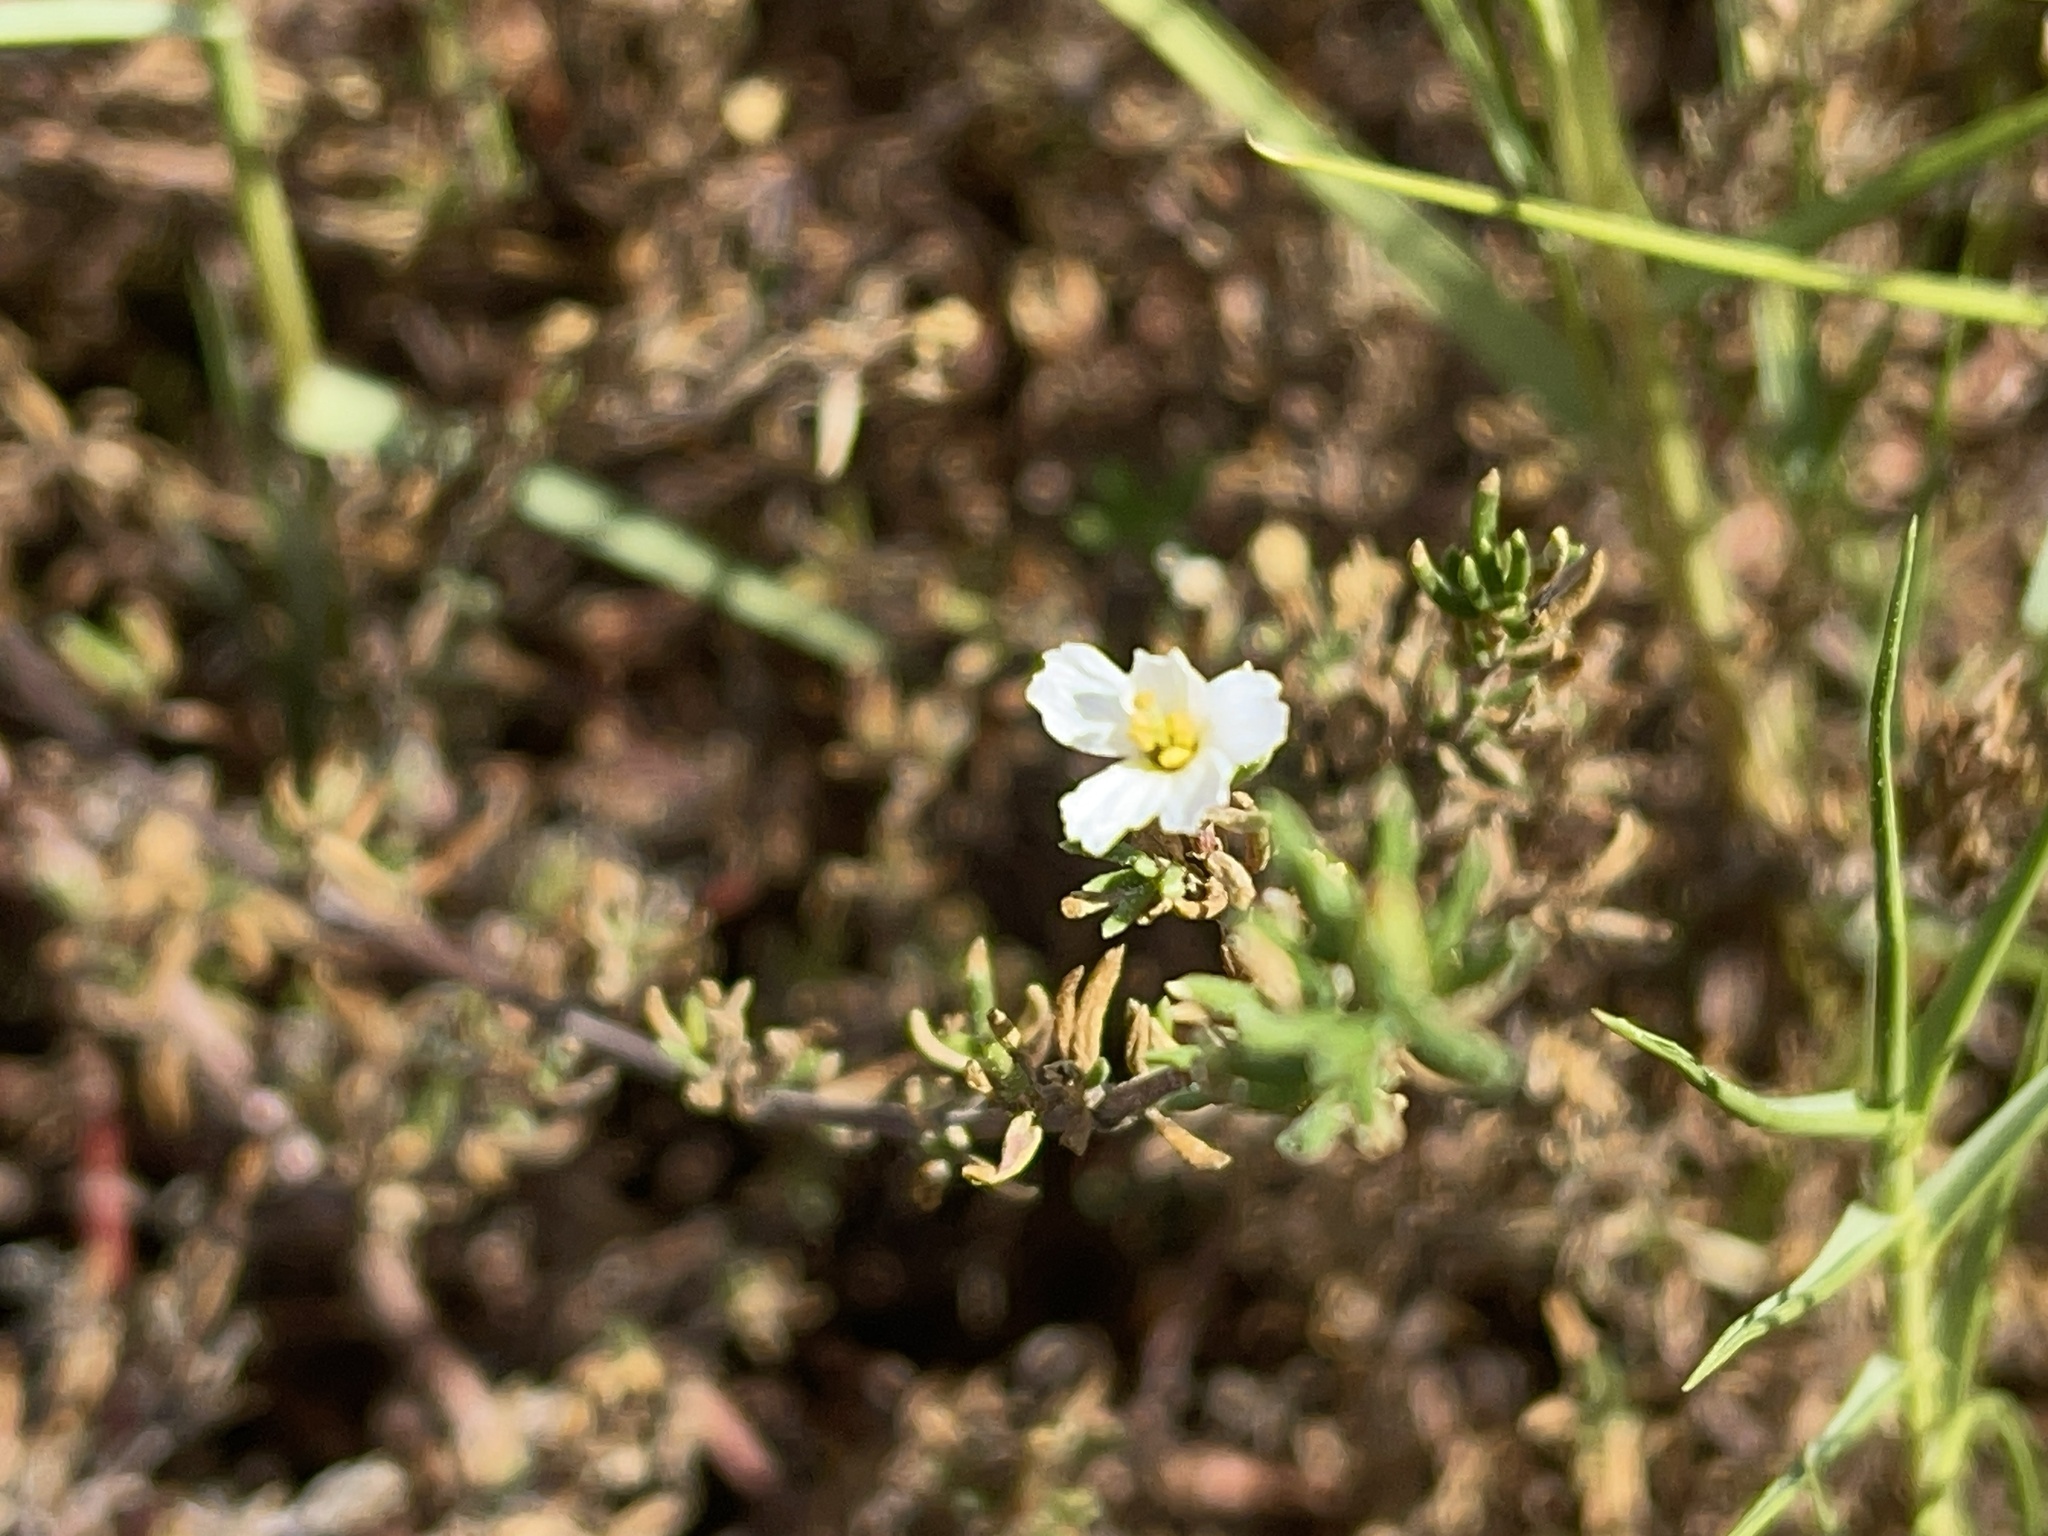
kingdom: Plantae
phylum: Tracheophyta
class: Magnoliopsida
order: Caryophyllales
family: Frankeniaceae
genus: Frankenia
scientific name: Frankenia pauciflora
